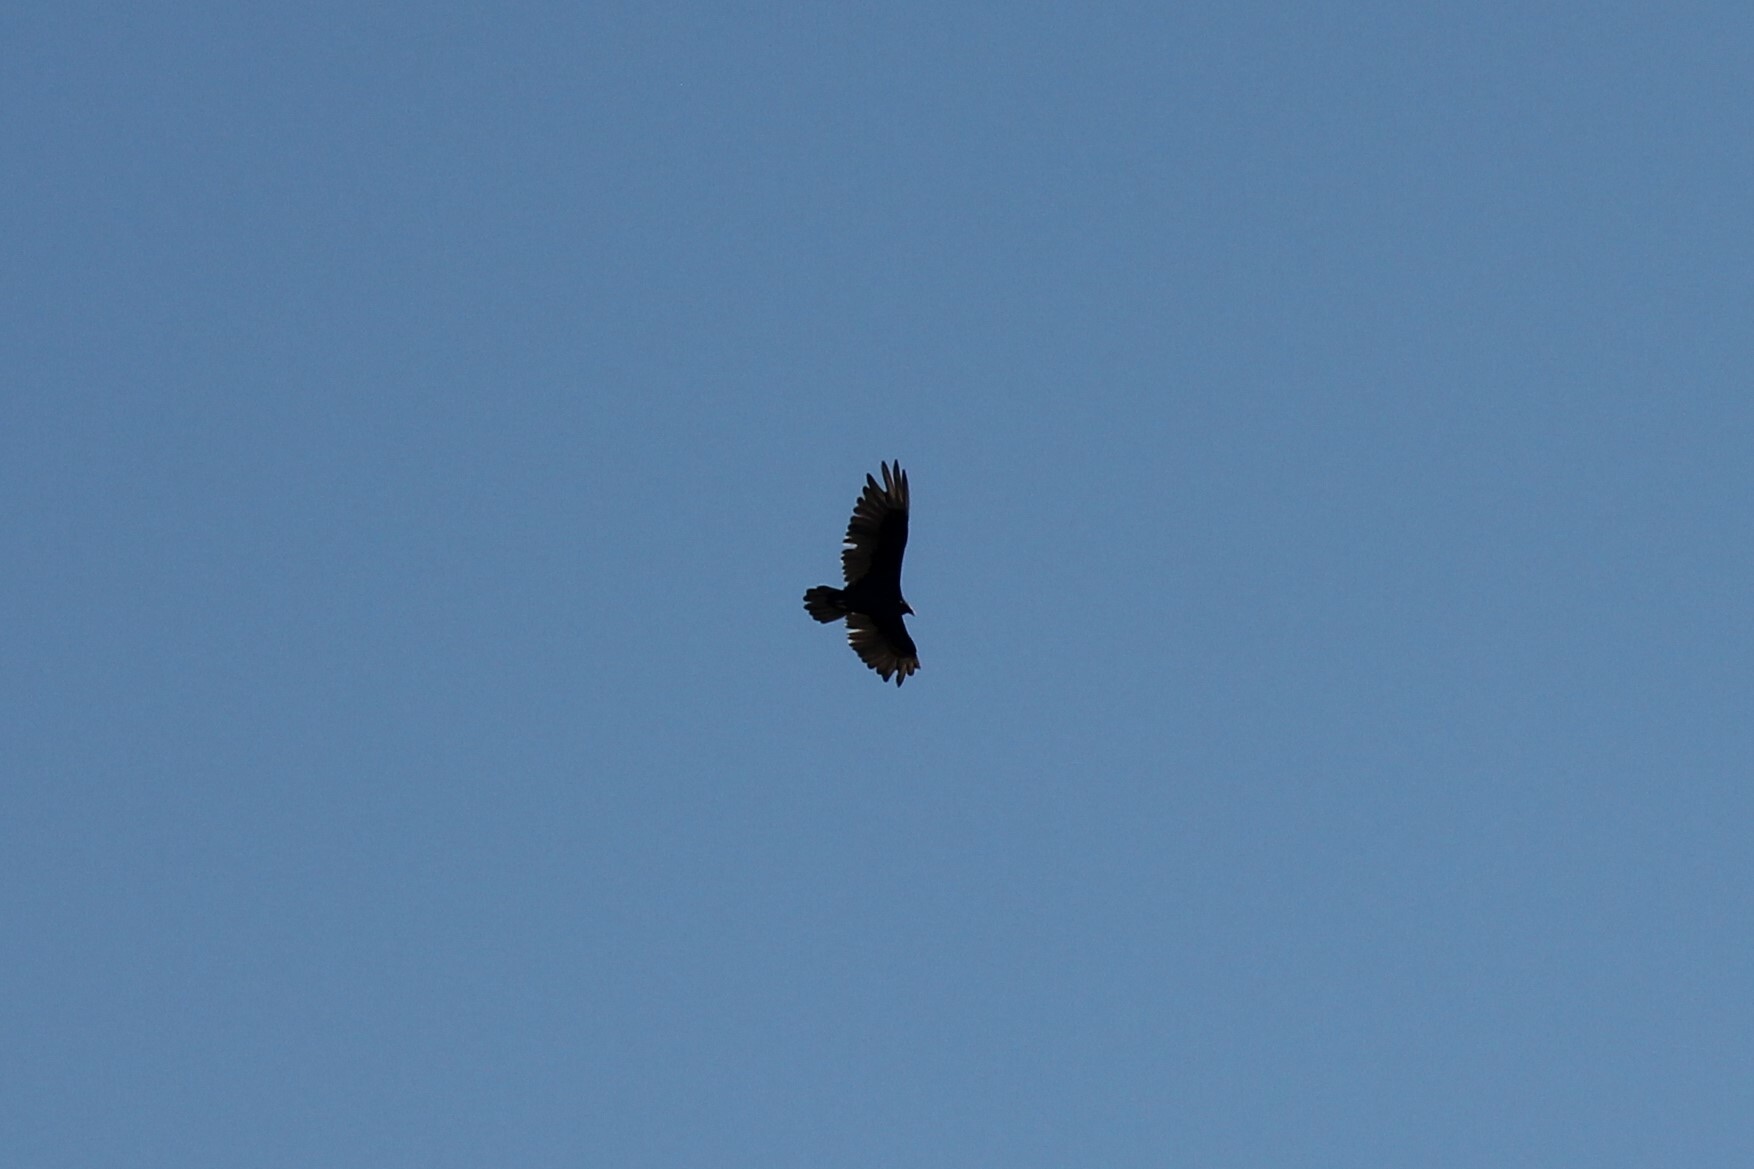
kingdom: Animalia
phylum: Chordata
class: Aves
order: Accipitriformes
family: Cathartidae
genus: Cathartes
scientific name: Cathartes aura
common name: Turkey vulture
